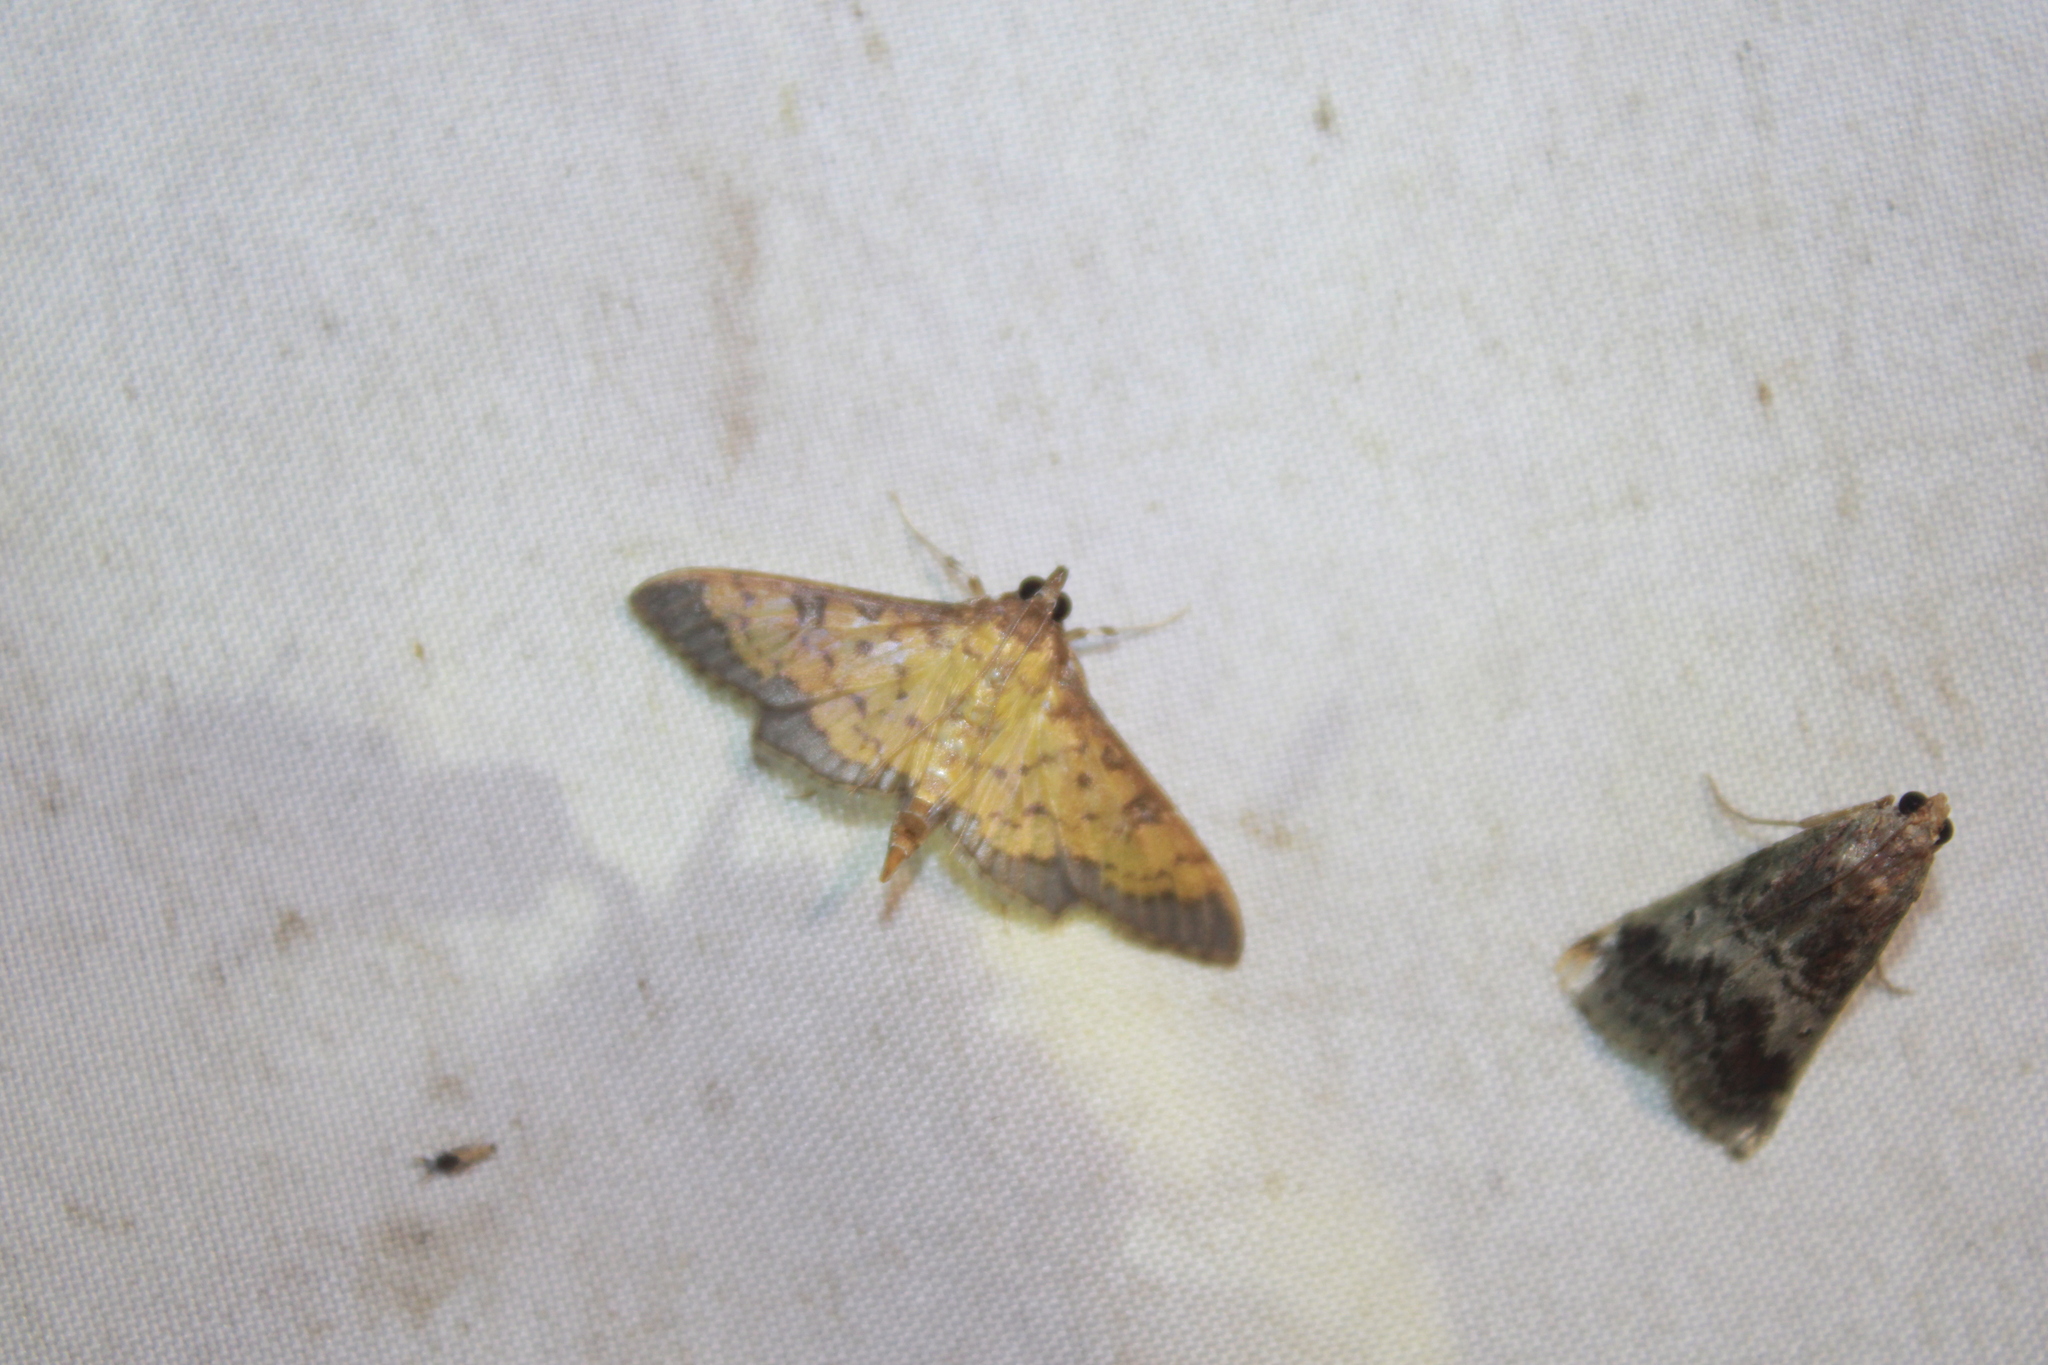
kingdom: Animalia
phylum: Arthropoda
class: Insecta
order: Lepidoptera
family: Crambidae
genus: Diacme
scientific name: Diacme mopsalis
